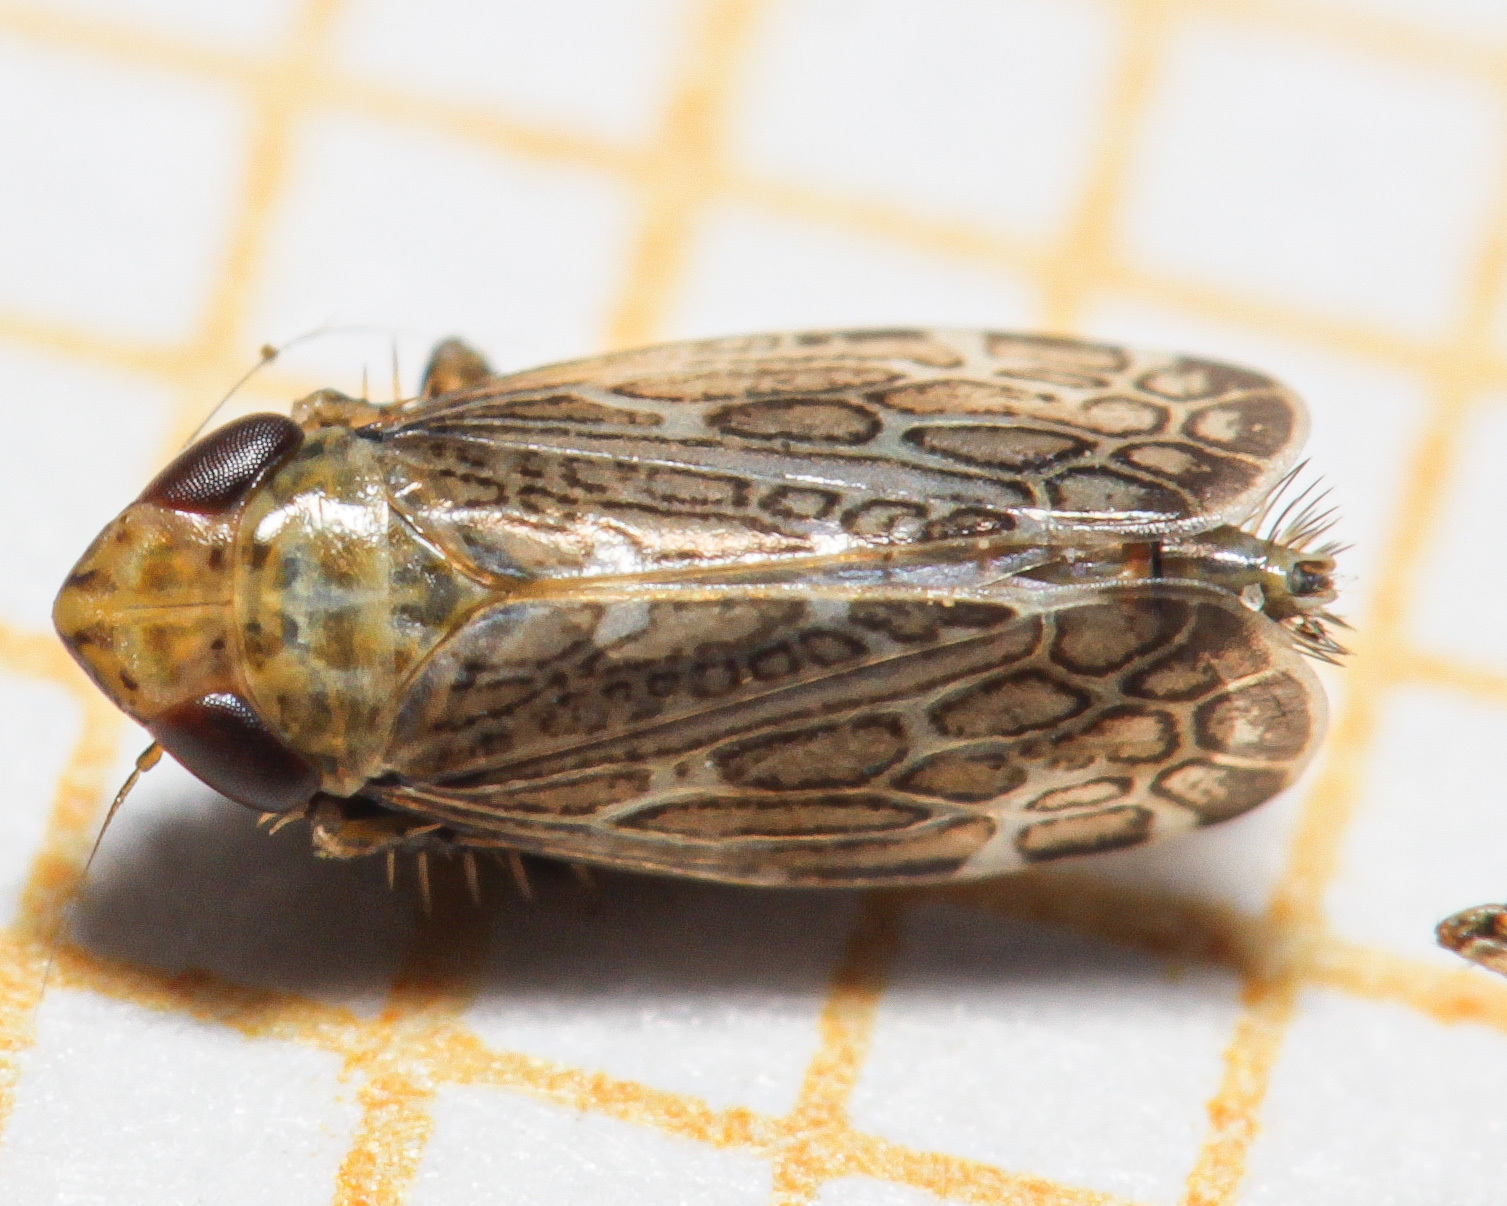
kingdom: Animalia
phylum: Arthropoda
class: Insecta
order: Hemiptera
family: Cicadellidae
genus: Errastunus
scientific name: Errastunus ocellaris
